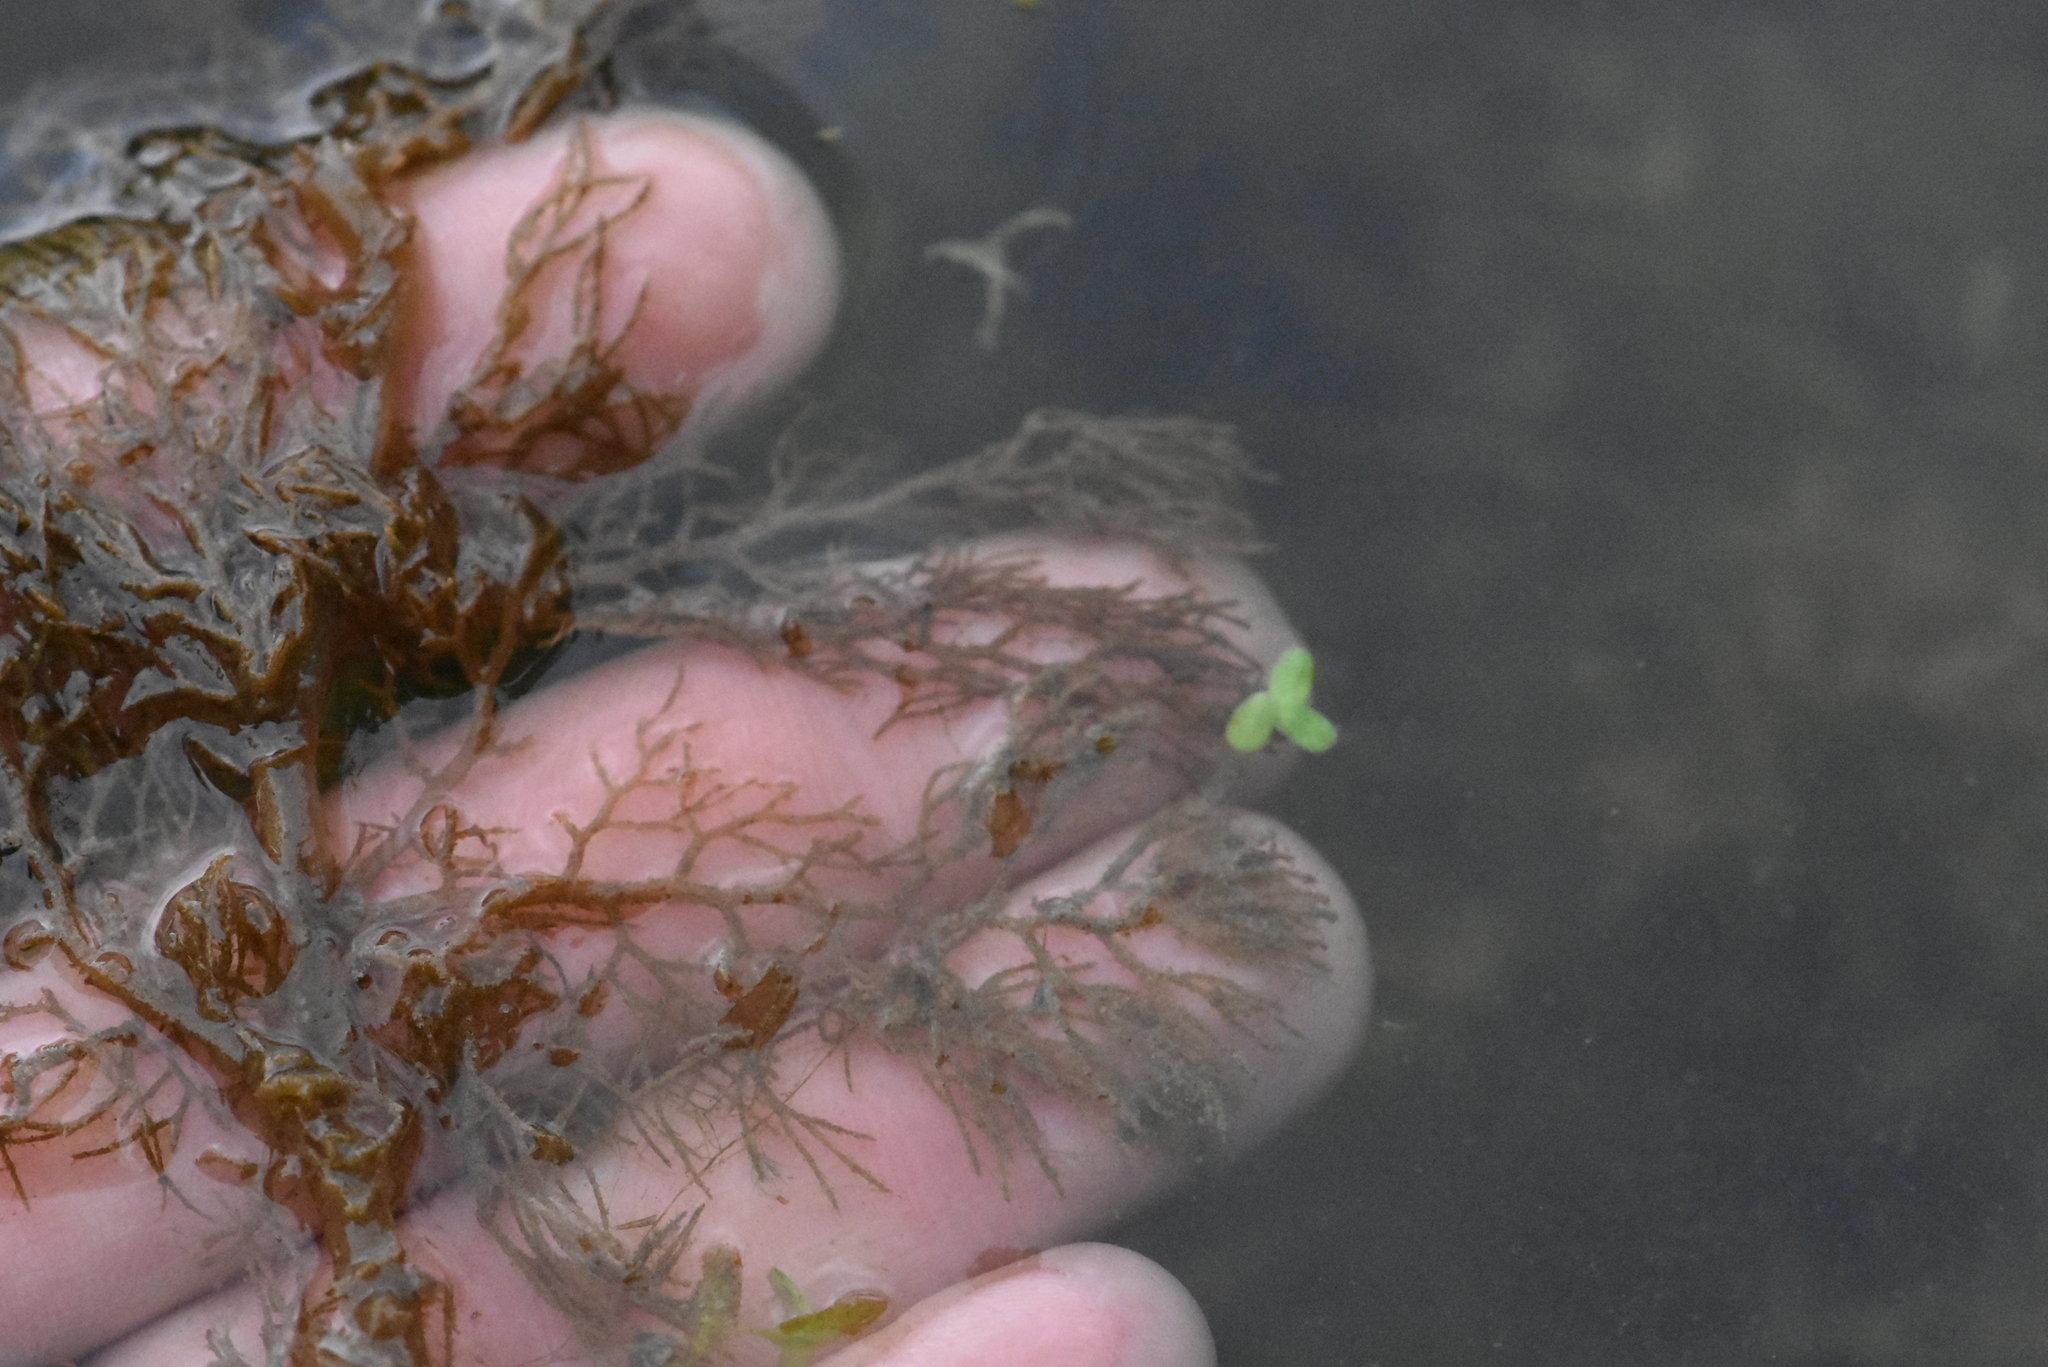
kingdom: Plantae
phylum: Tracheophyta
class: Magnoliopsida
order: Lamiales
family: Lentibulariaceae
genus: Utricularia
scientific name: Utricularia macrorhiza
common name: Common bladderwort
